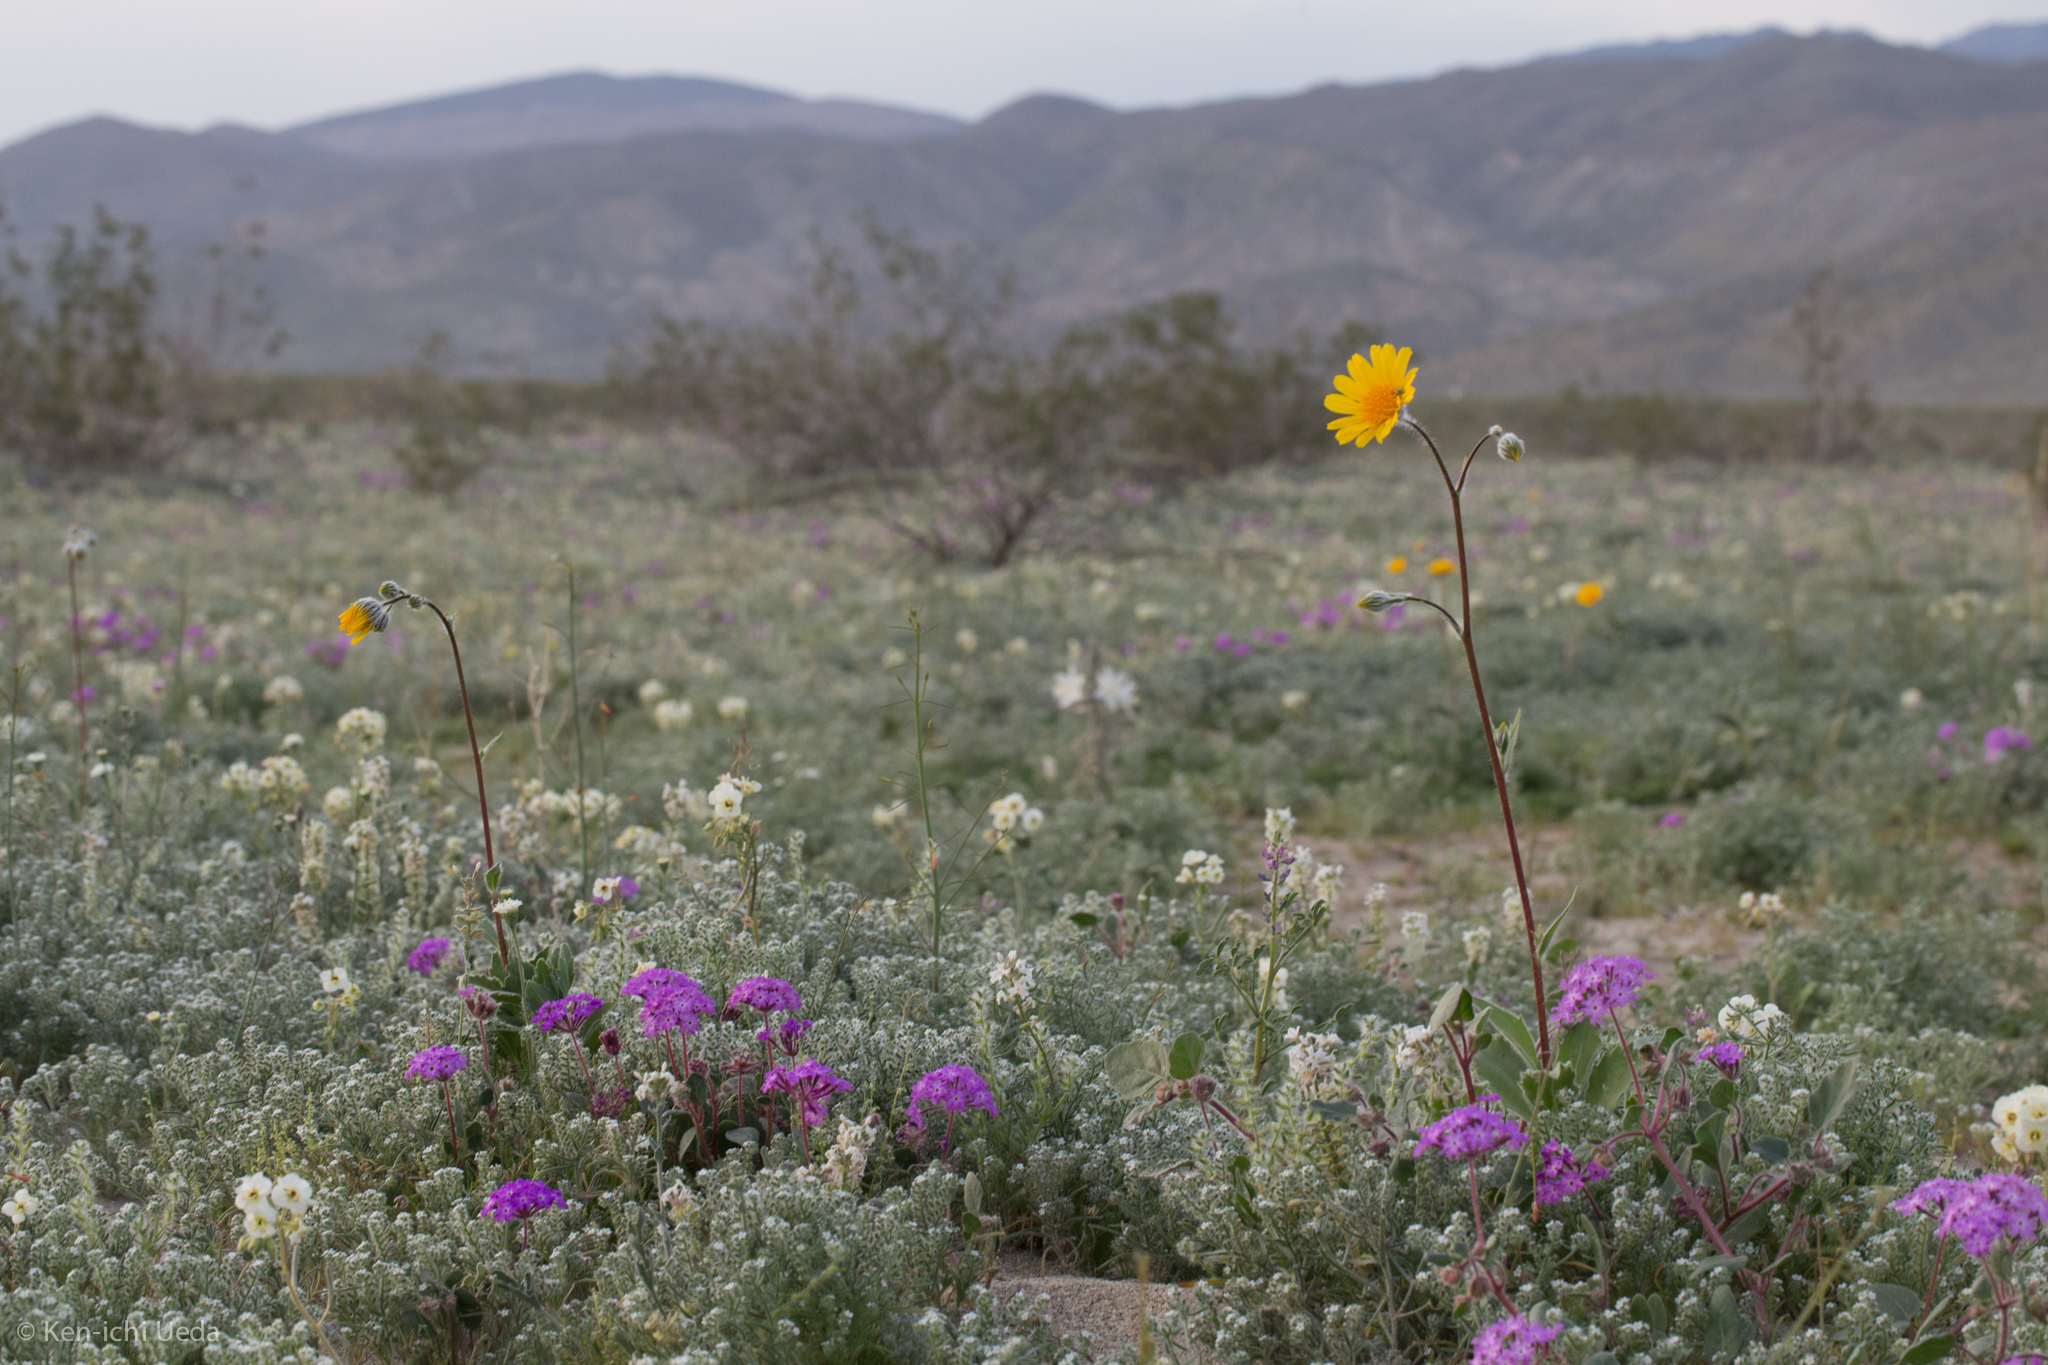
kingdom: Plantae
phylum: Tracheophyta
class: Magnoliopsida
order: Asterales
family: Asteraceae
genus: Geraea
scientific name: Geraea canescens
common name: Desert-gold
